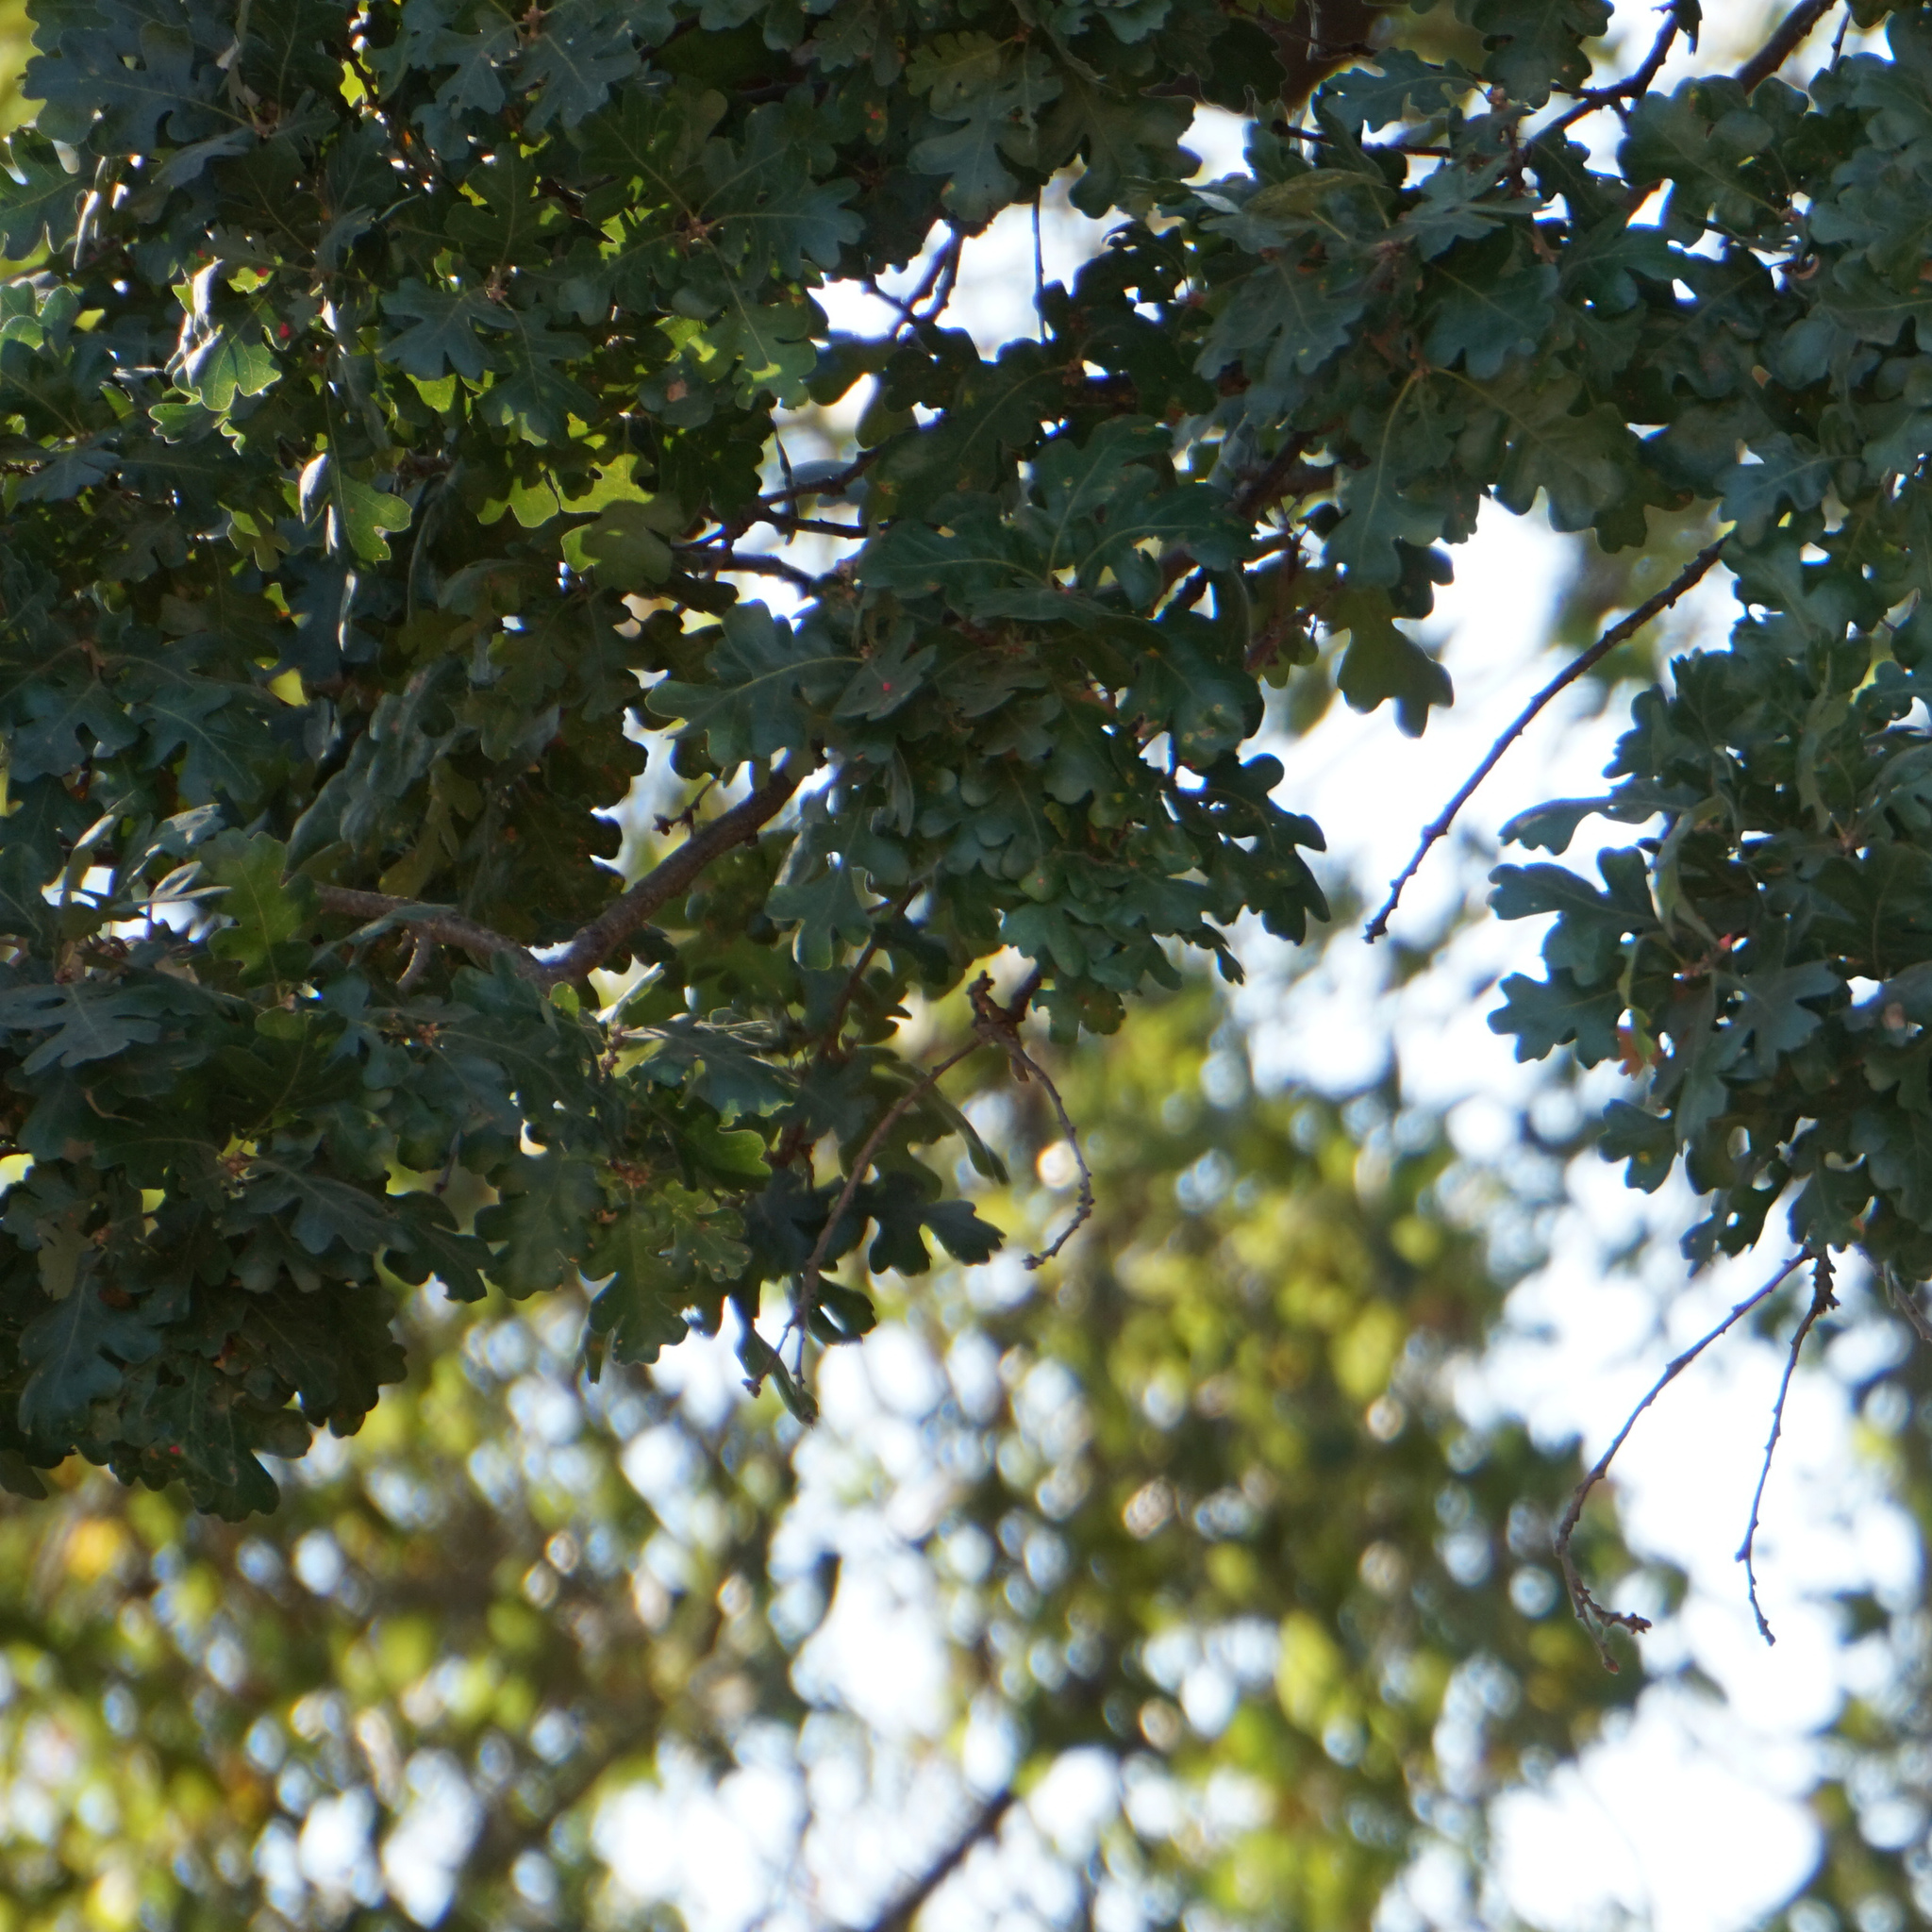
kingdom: Plantae
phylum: Tracheophyta
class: Magnoliopsida
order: Fagales
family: Fagaceae
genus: Quercus
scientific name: Quercus lobata
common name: Valley oak
